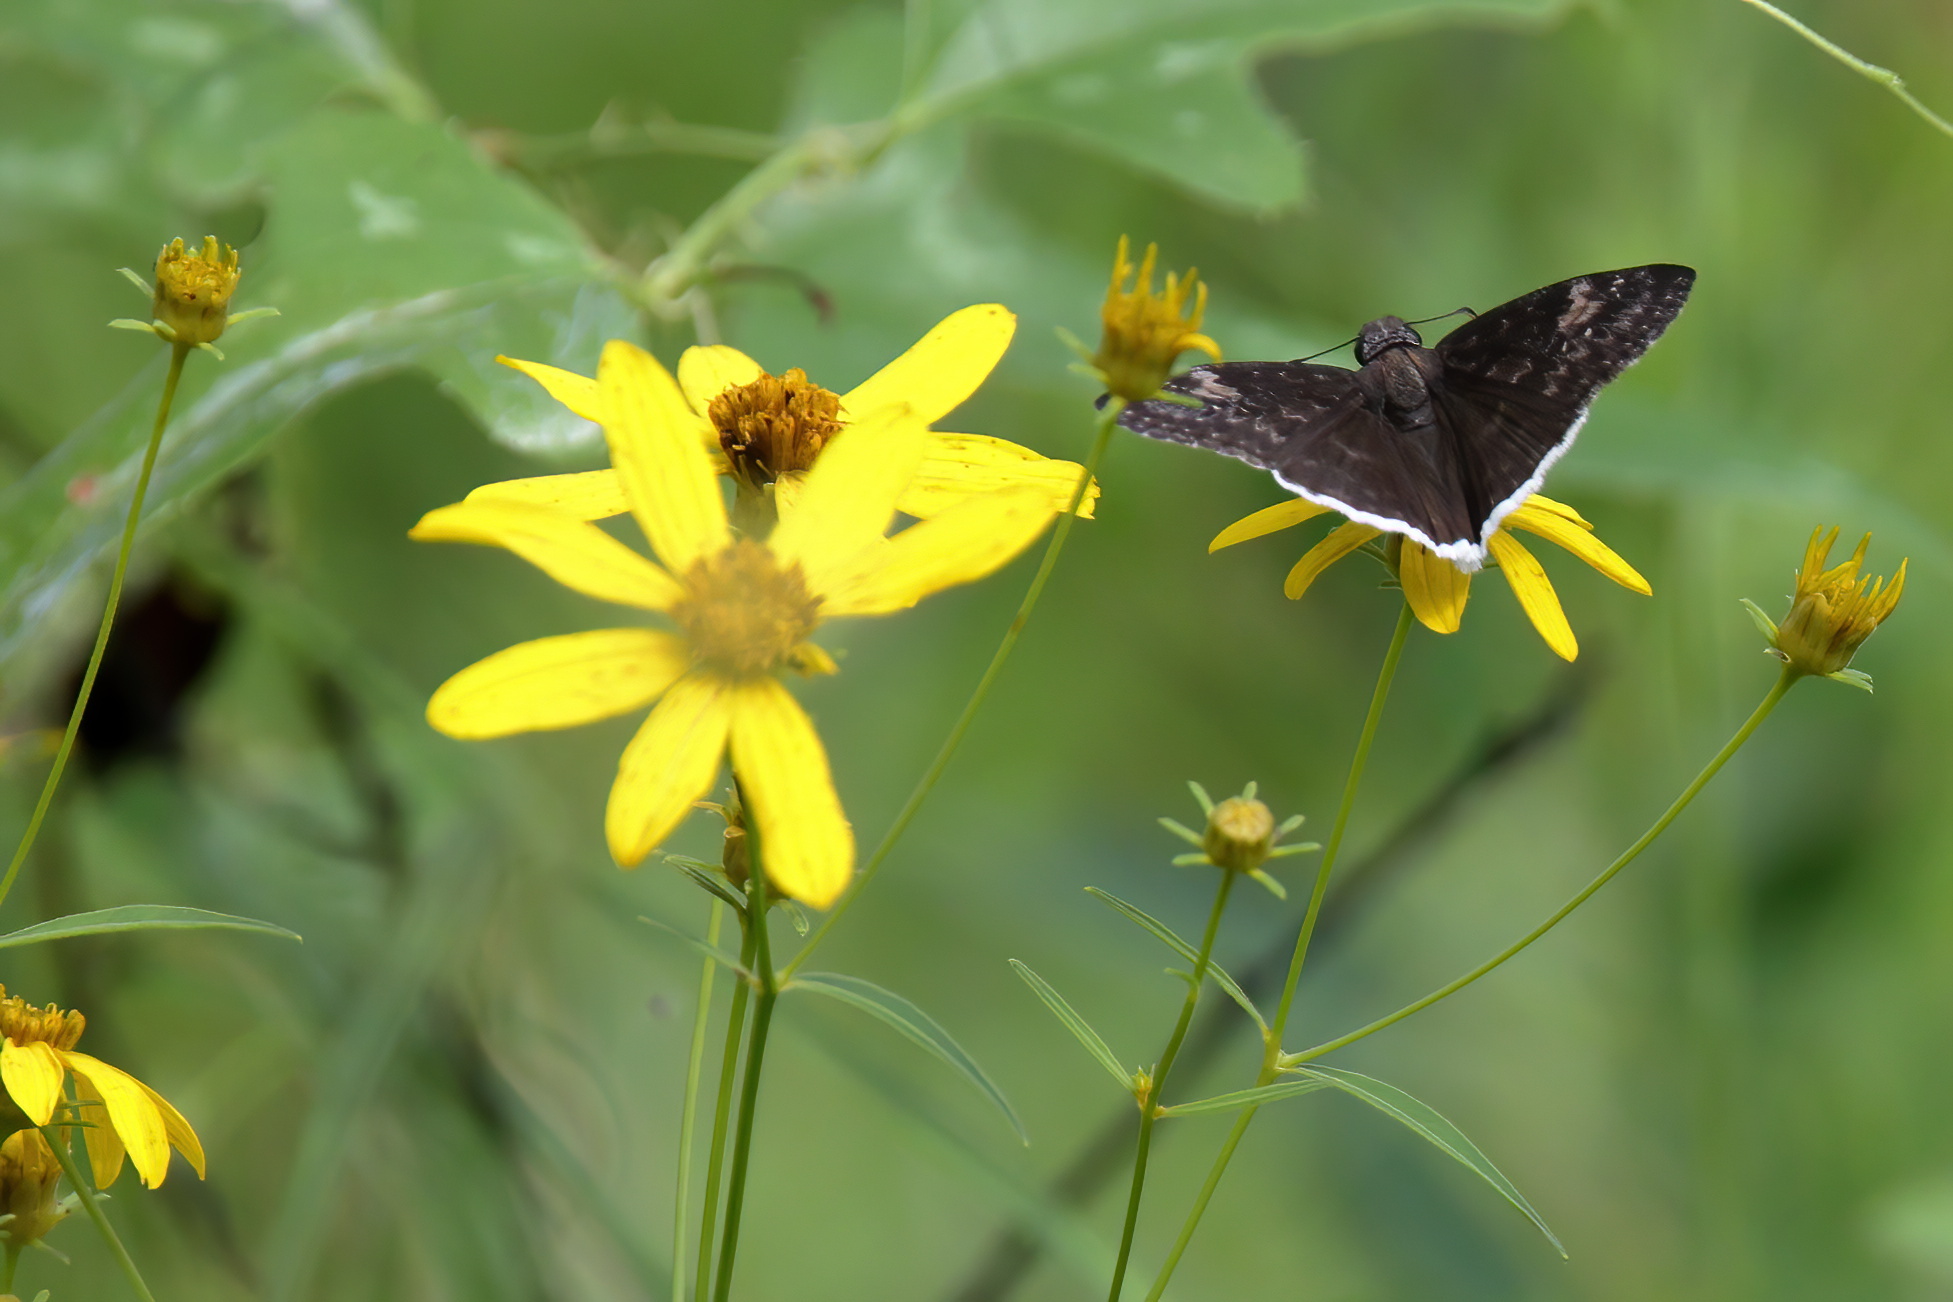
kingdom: Animalia
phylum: Arthropoda
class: Insecta
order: Lepidoptera
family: Hesperiidae
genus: Erynnis
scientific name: Erynnis funeralis
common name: Funereal duskywing
